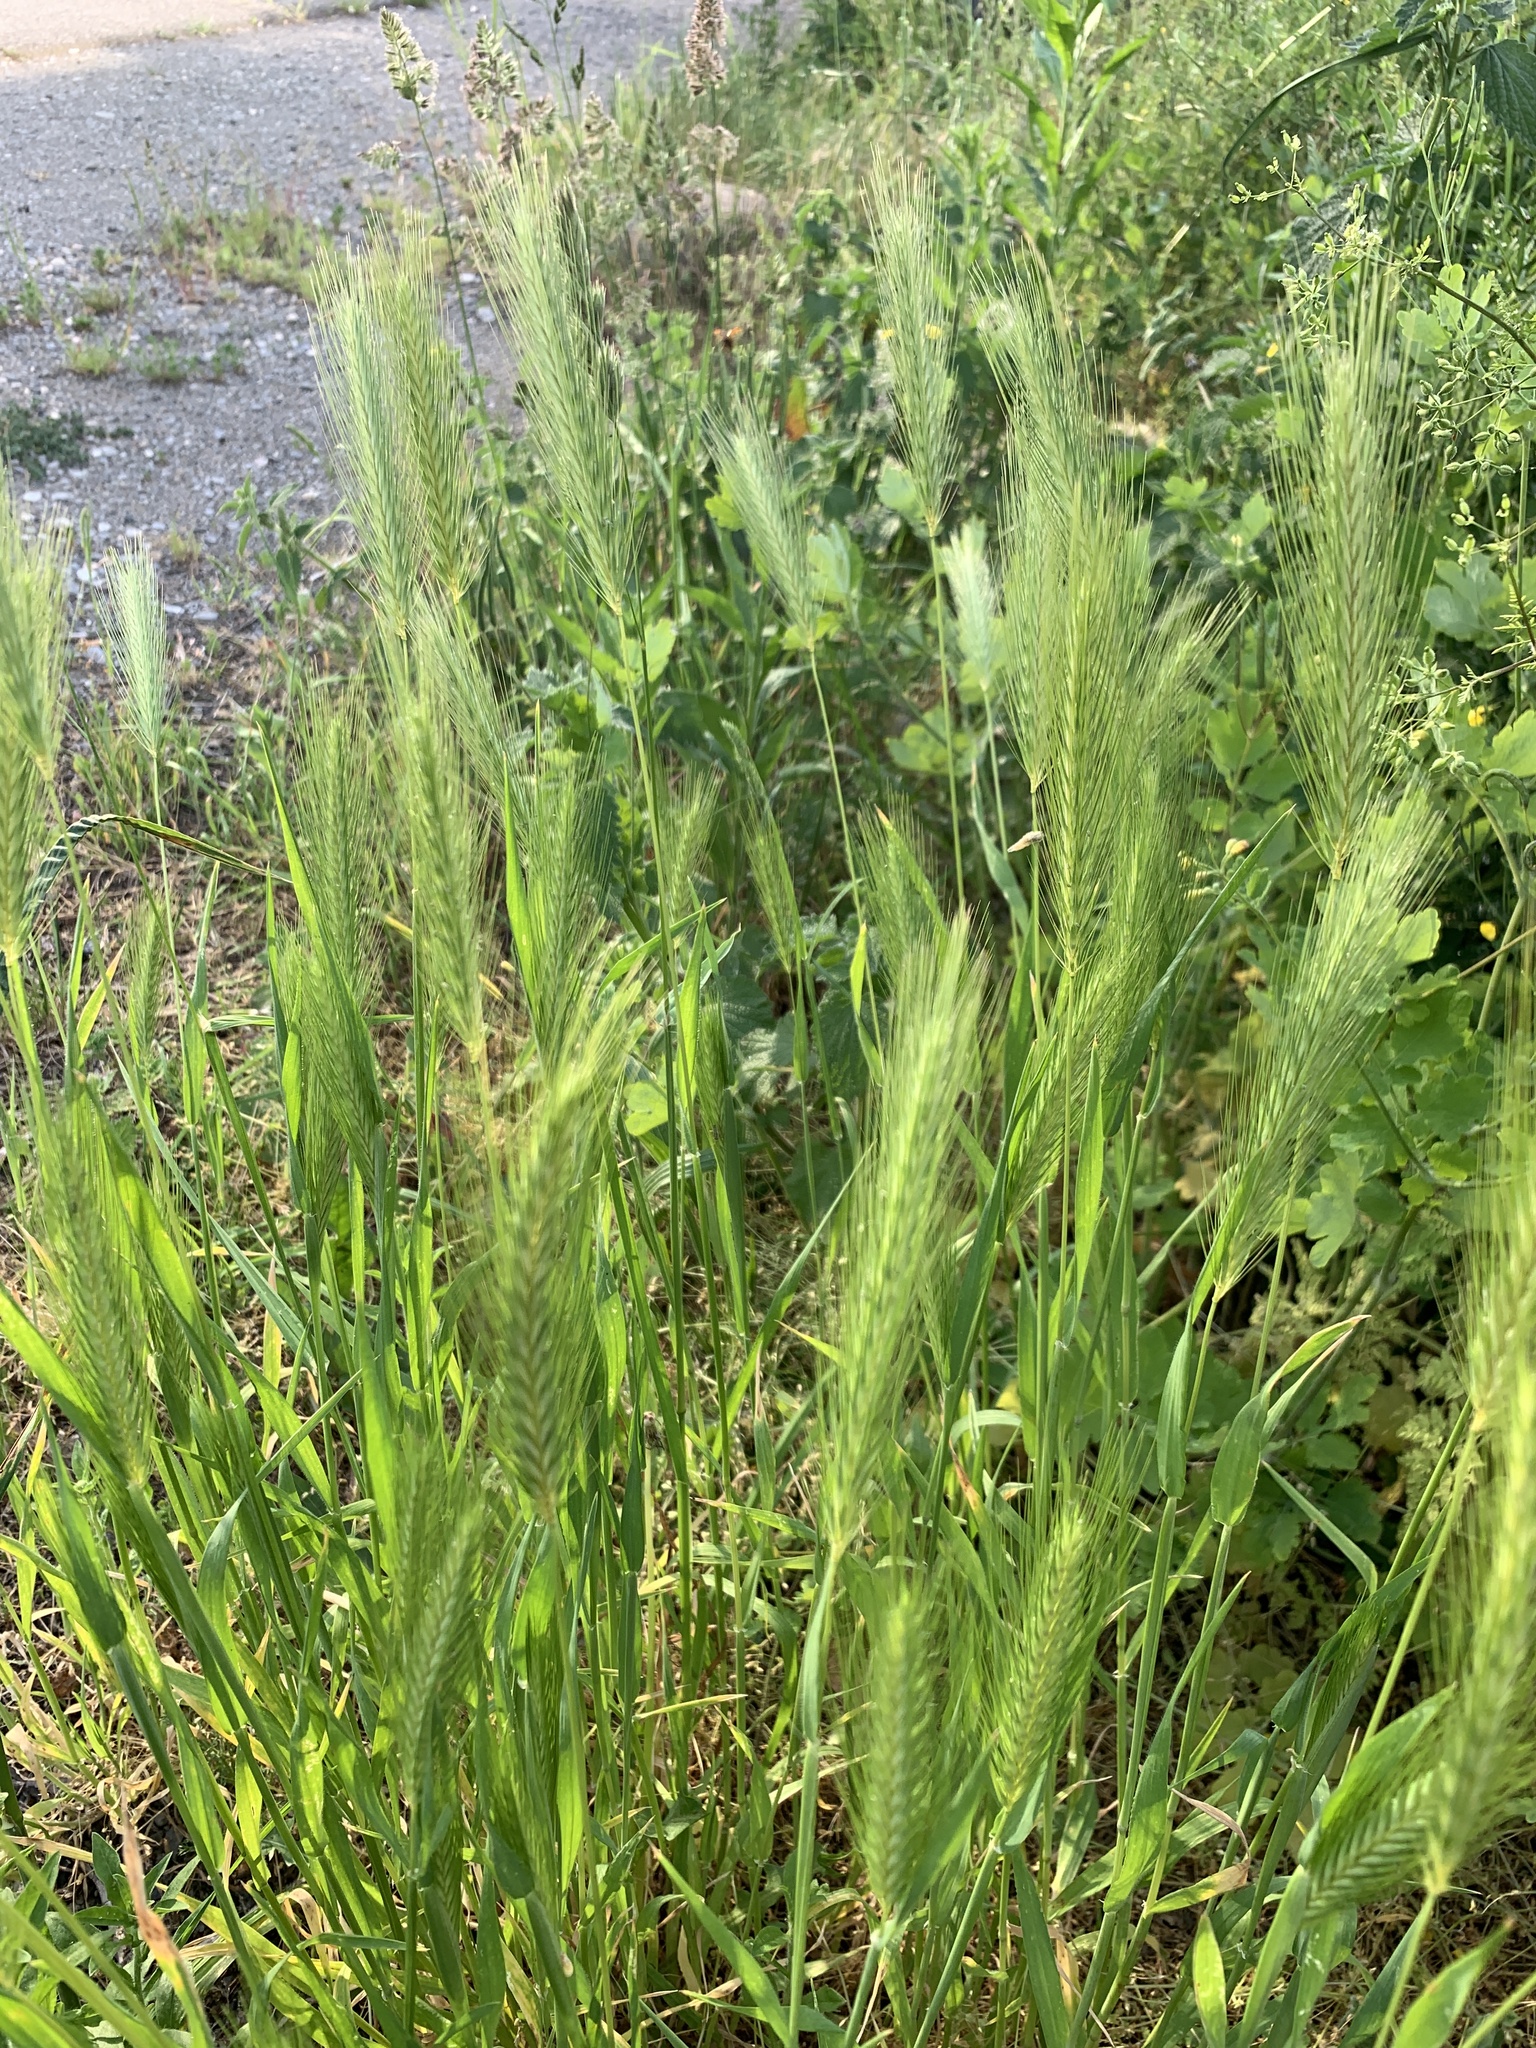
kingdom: Plantae
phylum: Tracheophyta
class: Liliopsida
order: Poales
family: Poaceae
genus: Hordeum
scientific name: Hordeum murinum
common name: Wall barley
